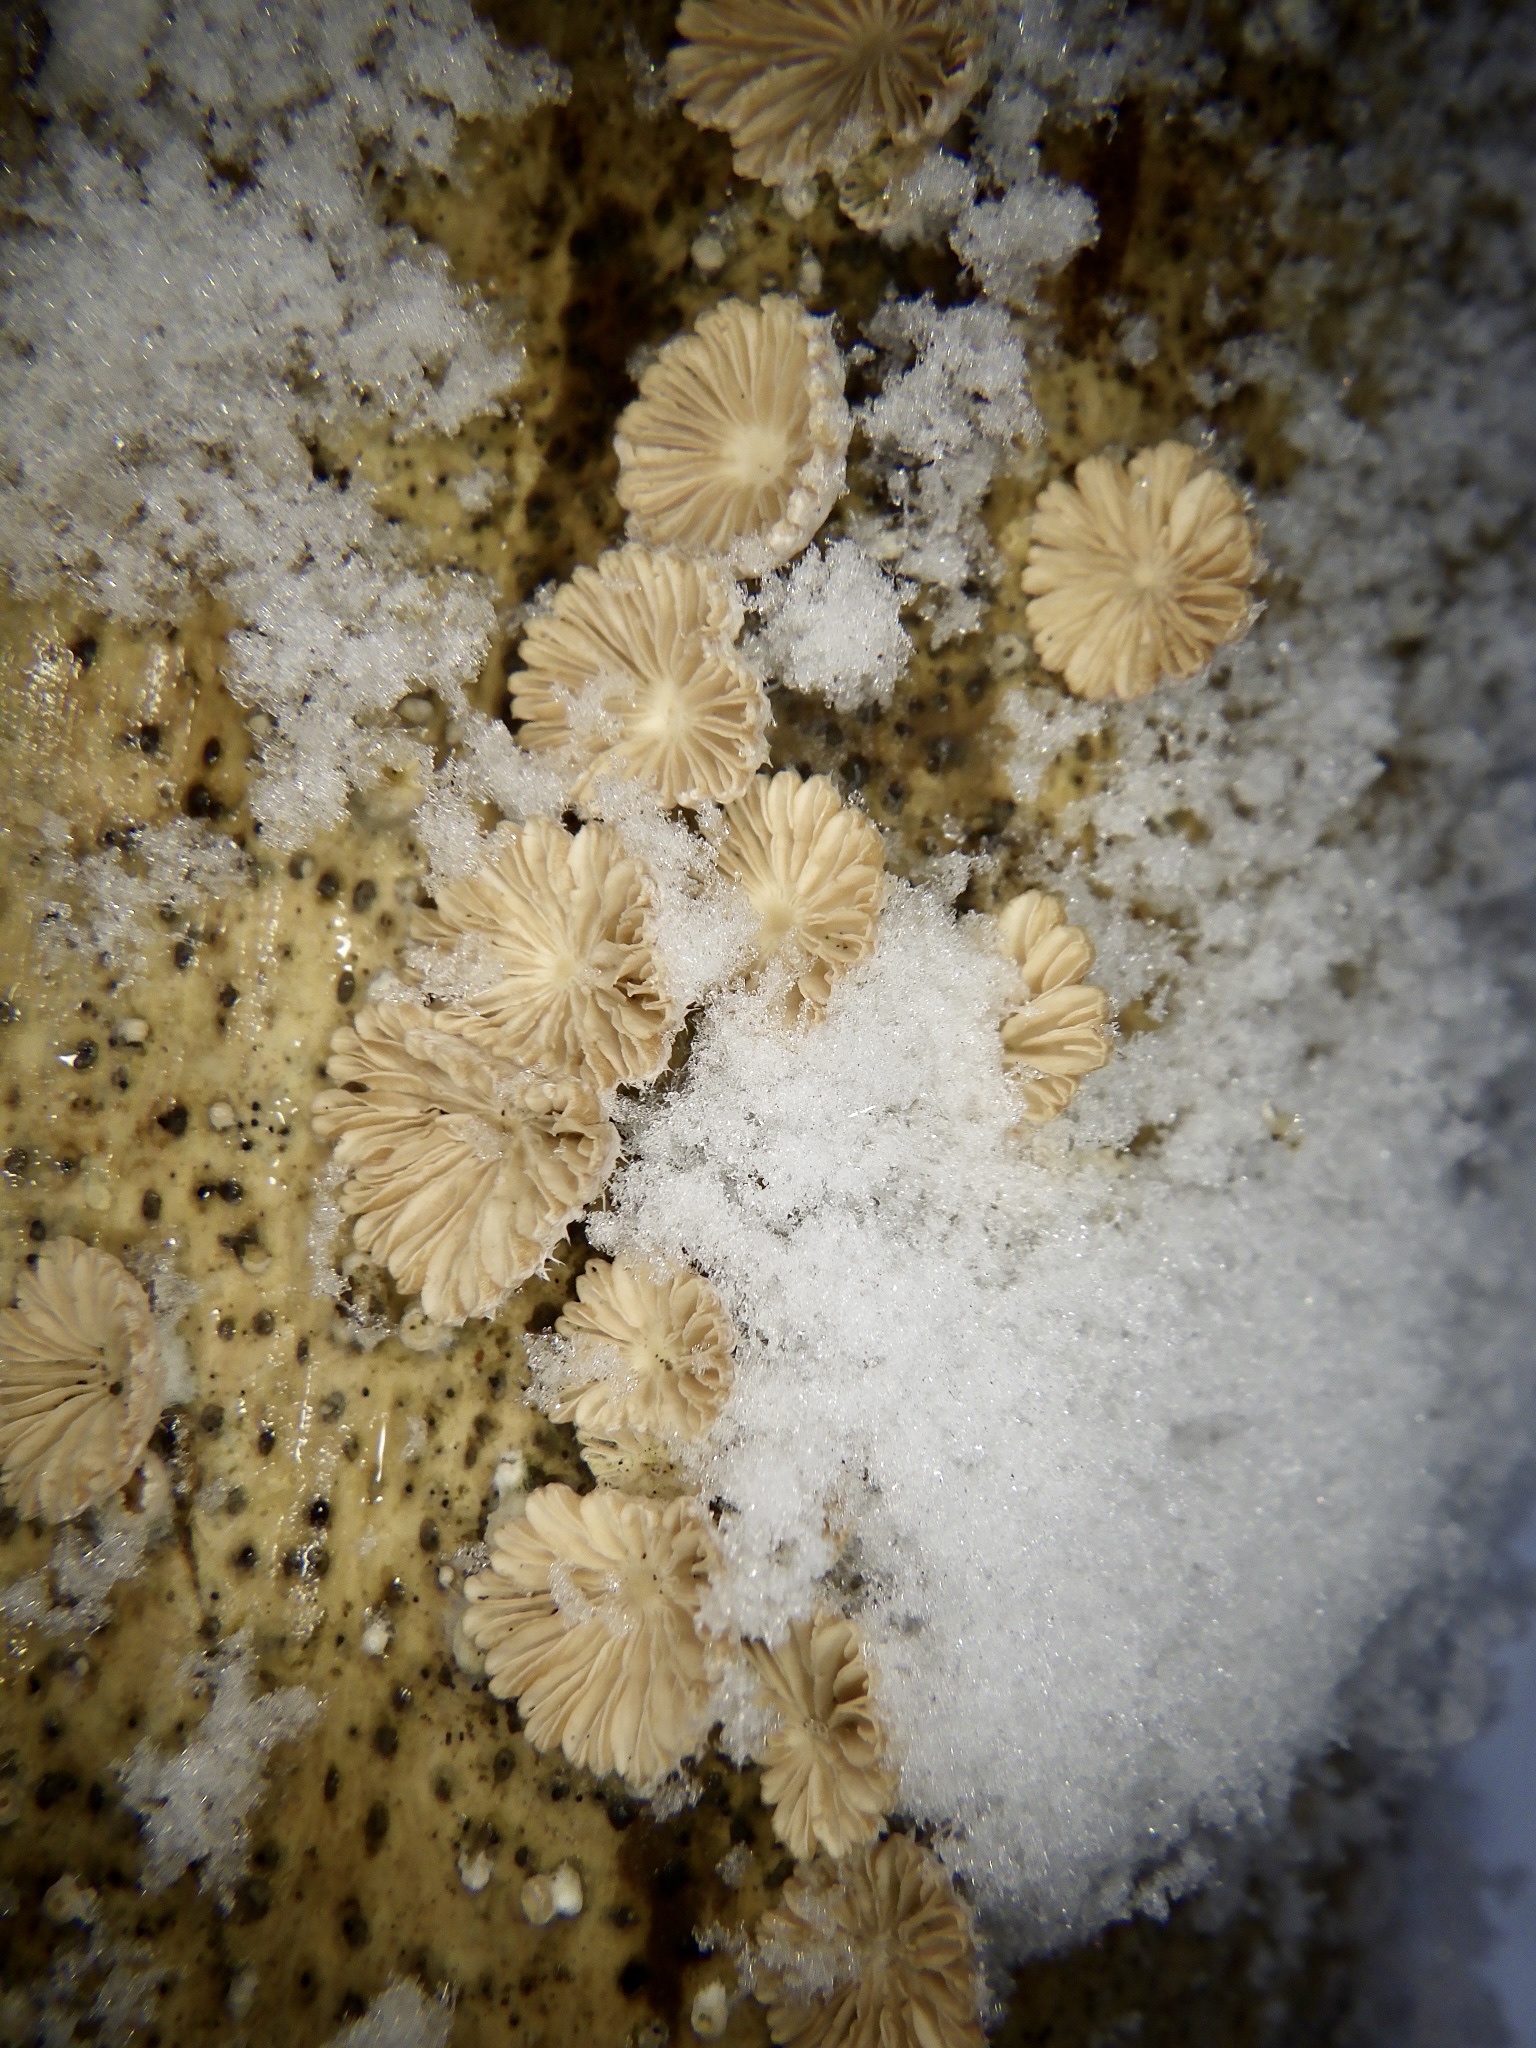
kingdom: Fungi
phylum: Basidiomycota
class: Agaricomycetes
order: Agaricales
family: Schizophyllaceae
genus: Schizophyllum
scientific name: Schizophyllum commune
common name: Common porecrust
